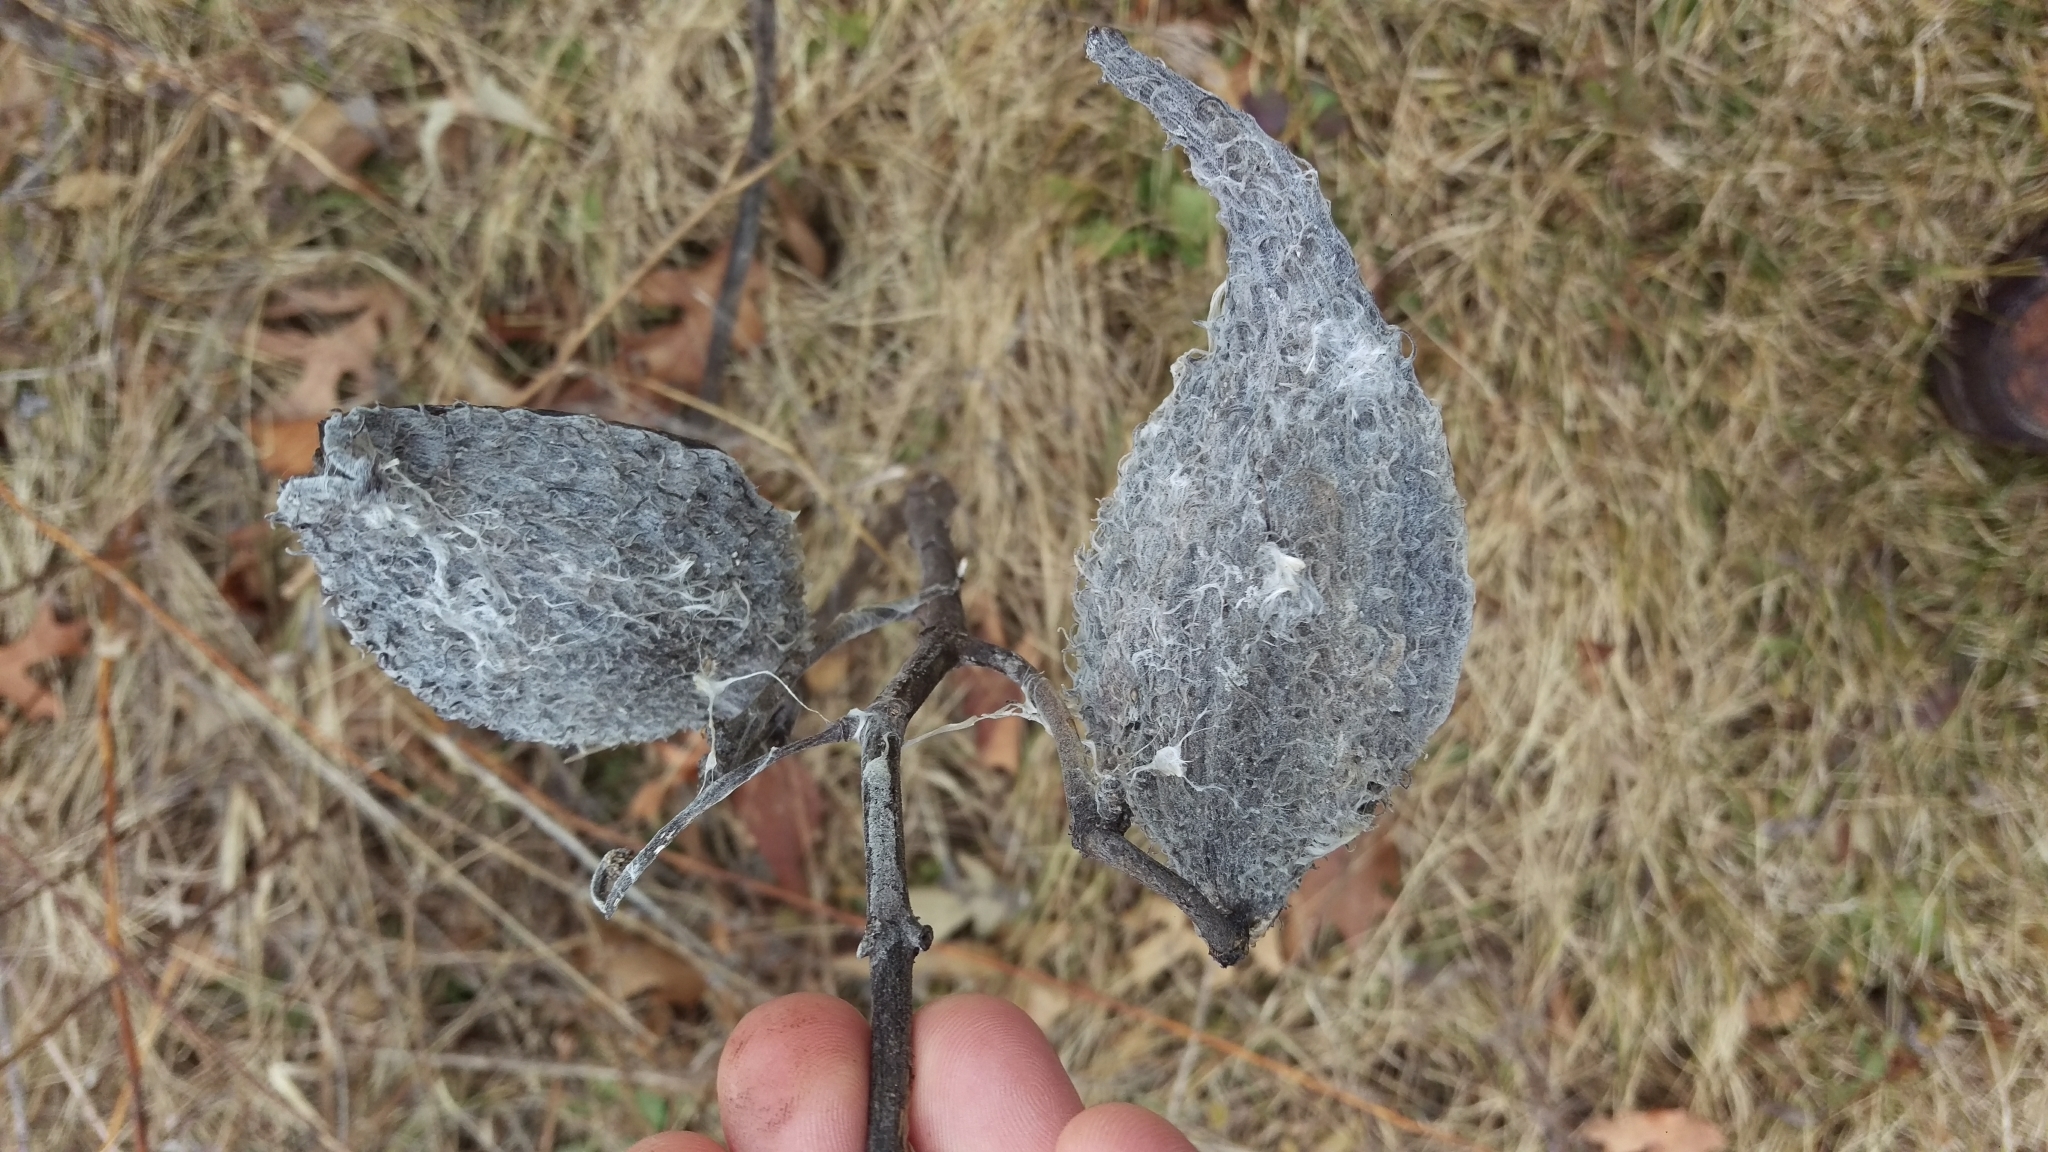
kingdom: Plantae
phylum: Tracheophyta
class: Magnoliopsida
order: Gentianales
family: Apocynaceae
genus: Asclepias
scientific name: Asclepias syriaca
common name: Common milkweed
